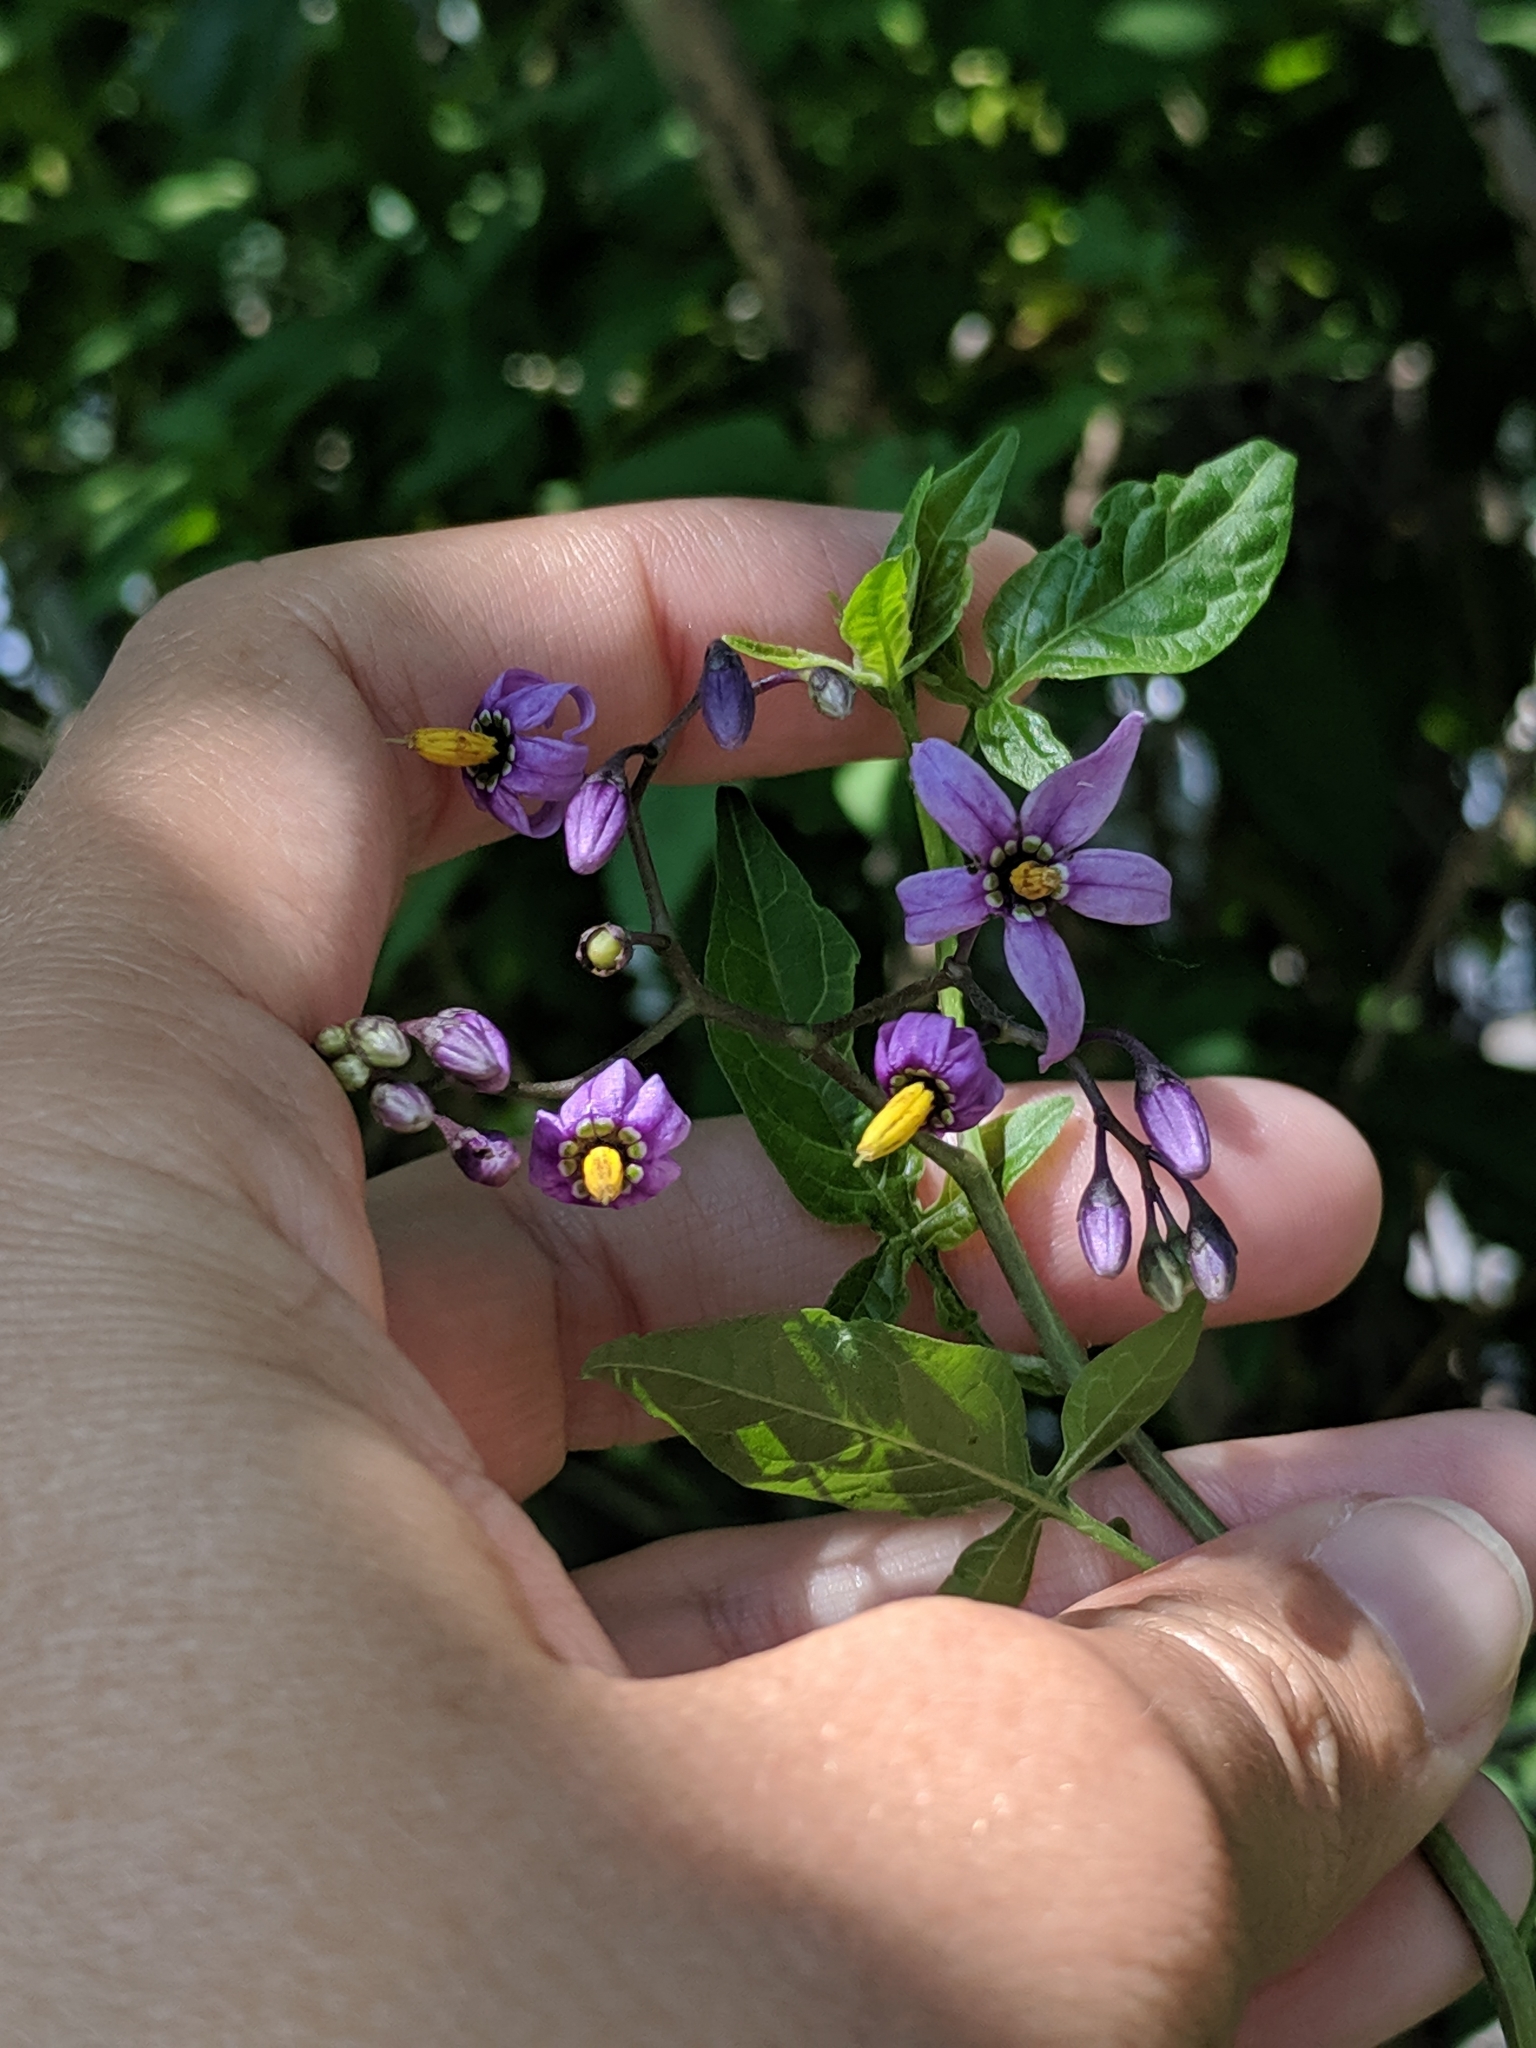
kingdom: Plantae
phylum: Tracheophyta
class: Magnoliopsida
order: Solanales
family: Solanaceae
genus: Solanum
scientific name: Solanum dulcamara
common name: Climbing nightshade
